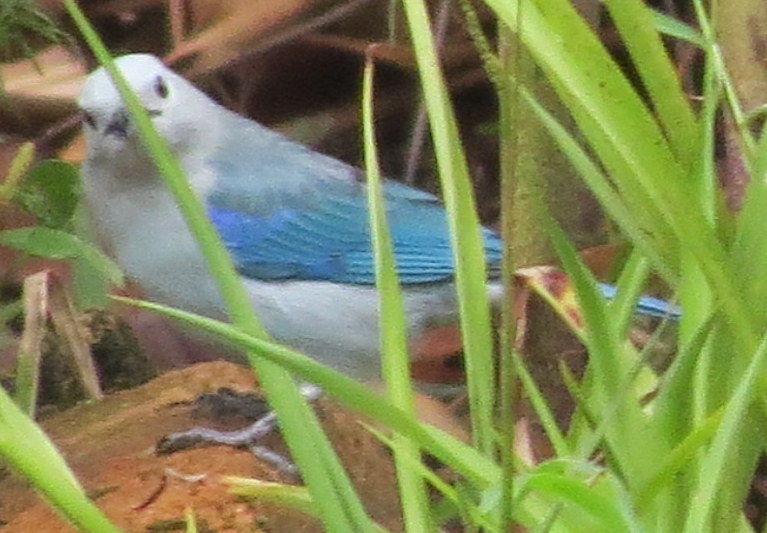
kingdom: Animalia
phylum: Chordata
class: Aves
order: Passeriformes
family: Thraupidae
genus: Thraupis
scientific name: Thraupis episcopus
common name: Blue-grey tanager
